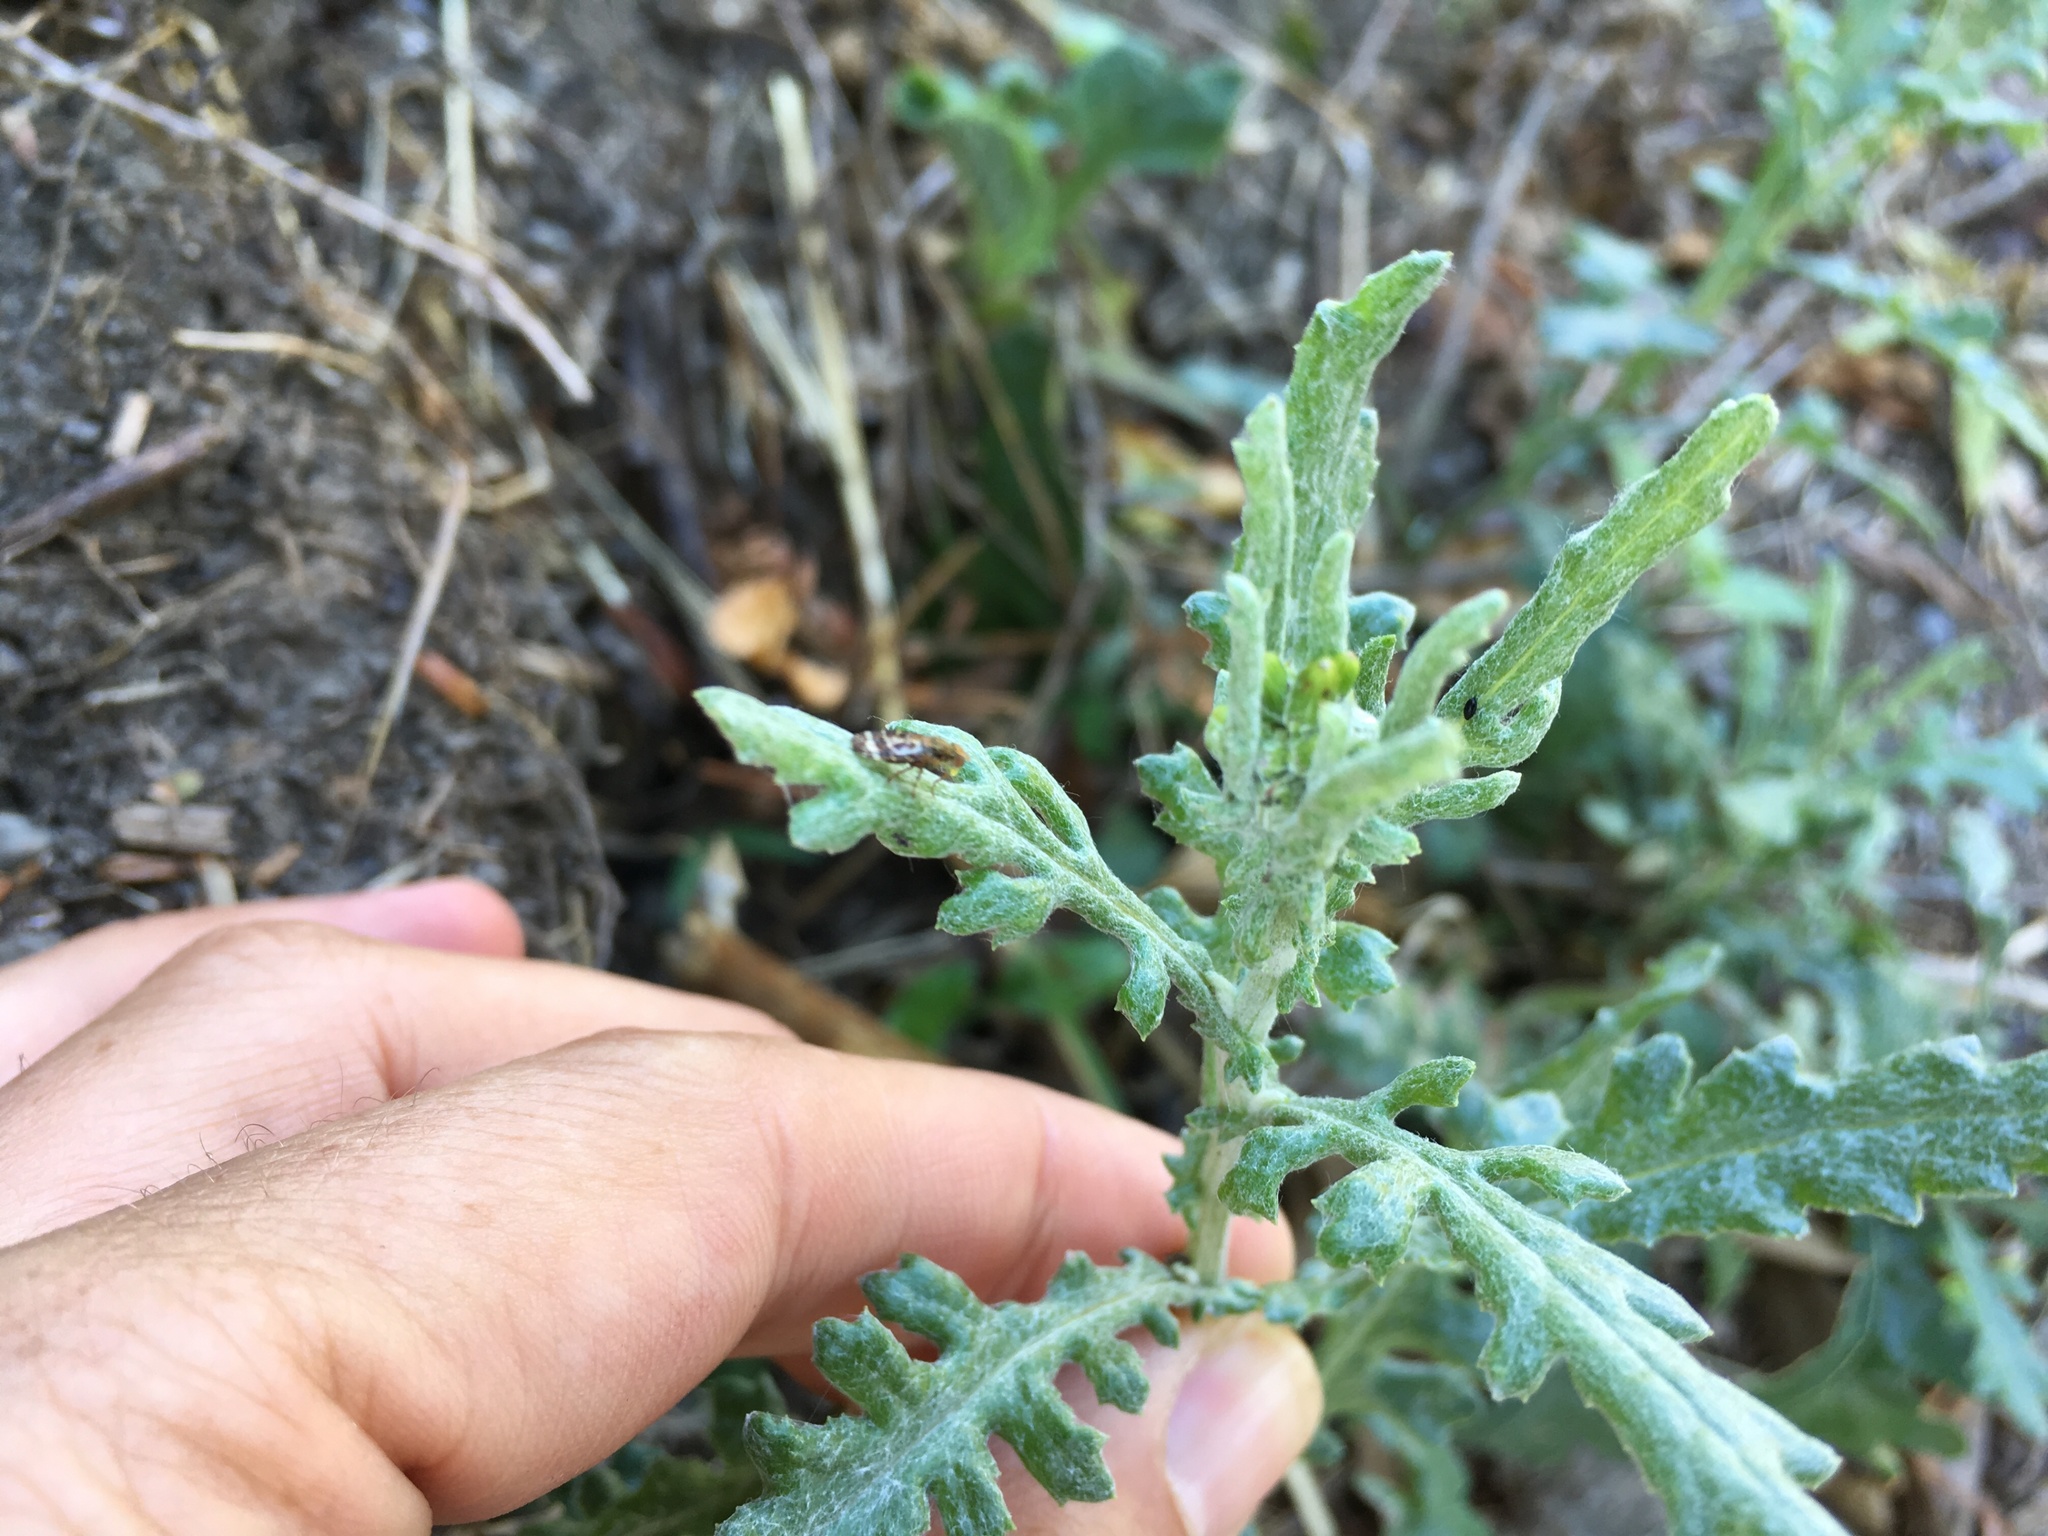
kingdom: Animalia
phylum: Arthropoda
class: Insecta
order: Diptera
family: Tephritidae
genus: Sphenella
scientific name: Sphenella
